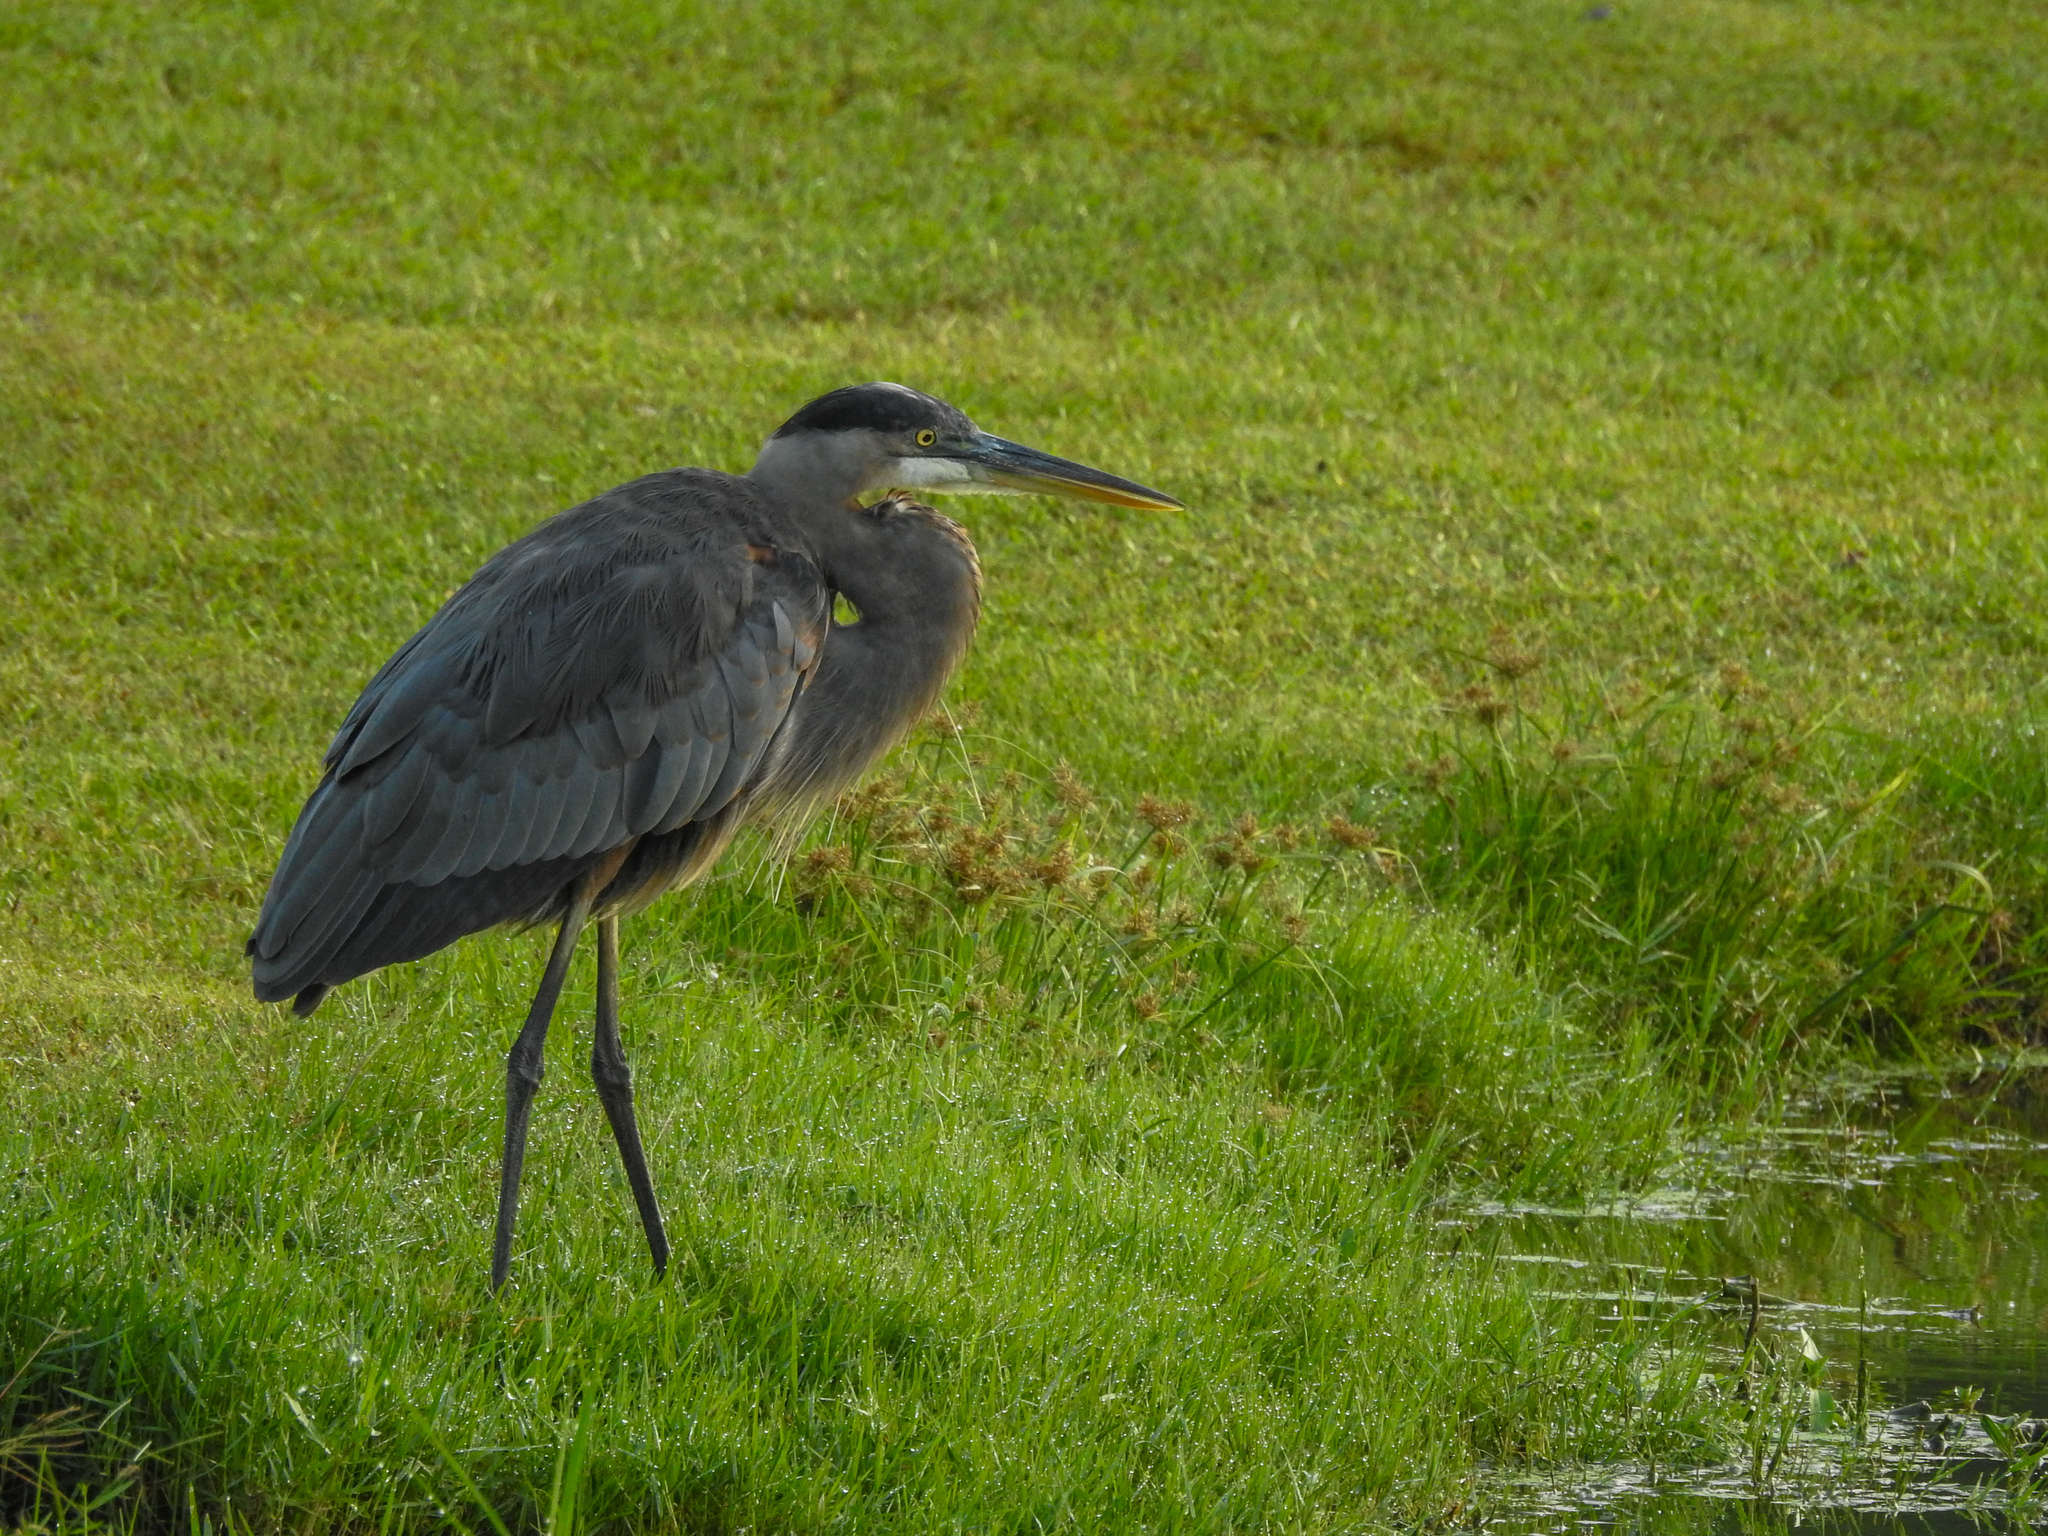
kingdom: Animalia
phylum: Chordata
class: Aves
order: Pelecaniformes
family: Ardeidae
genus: Ardea
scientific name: Ardea herodias
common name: Great blue heron
